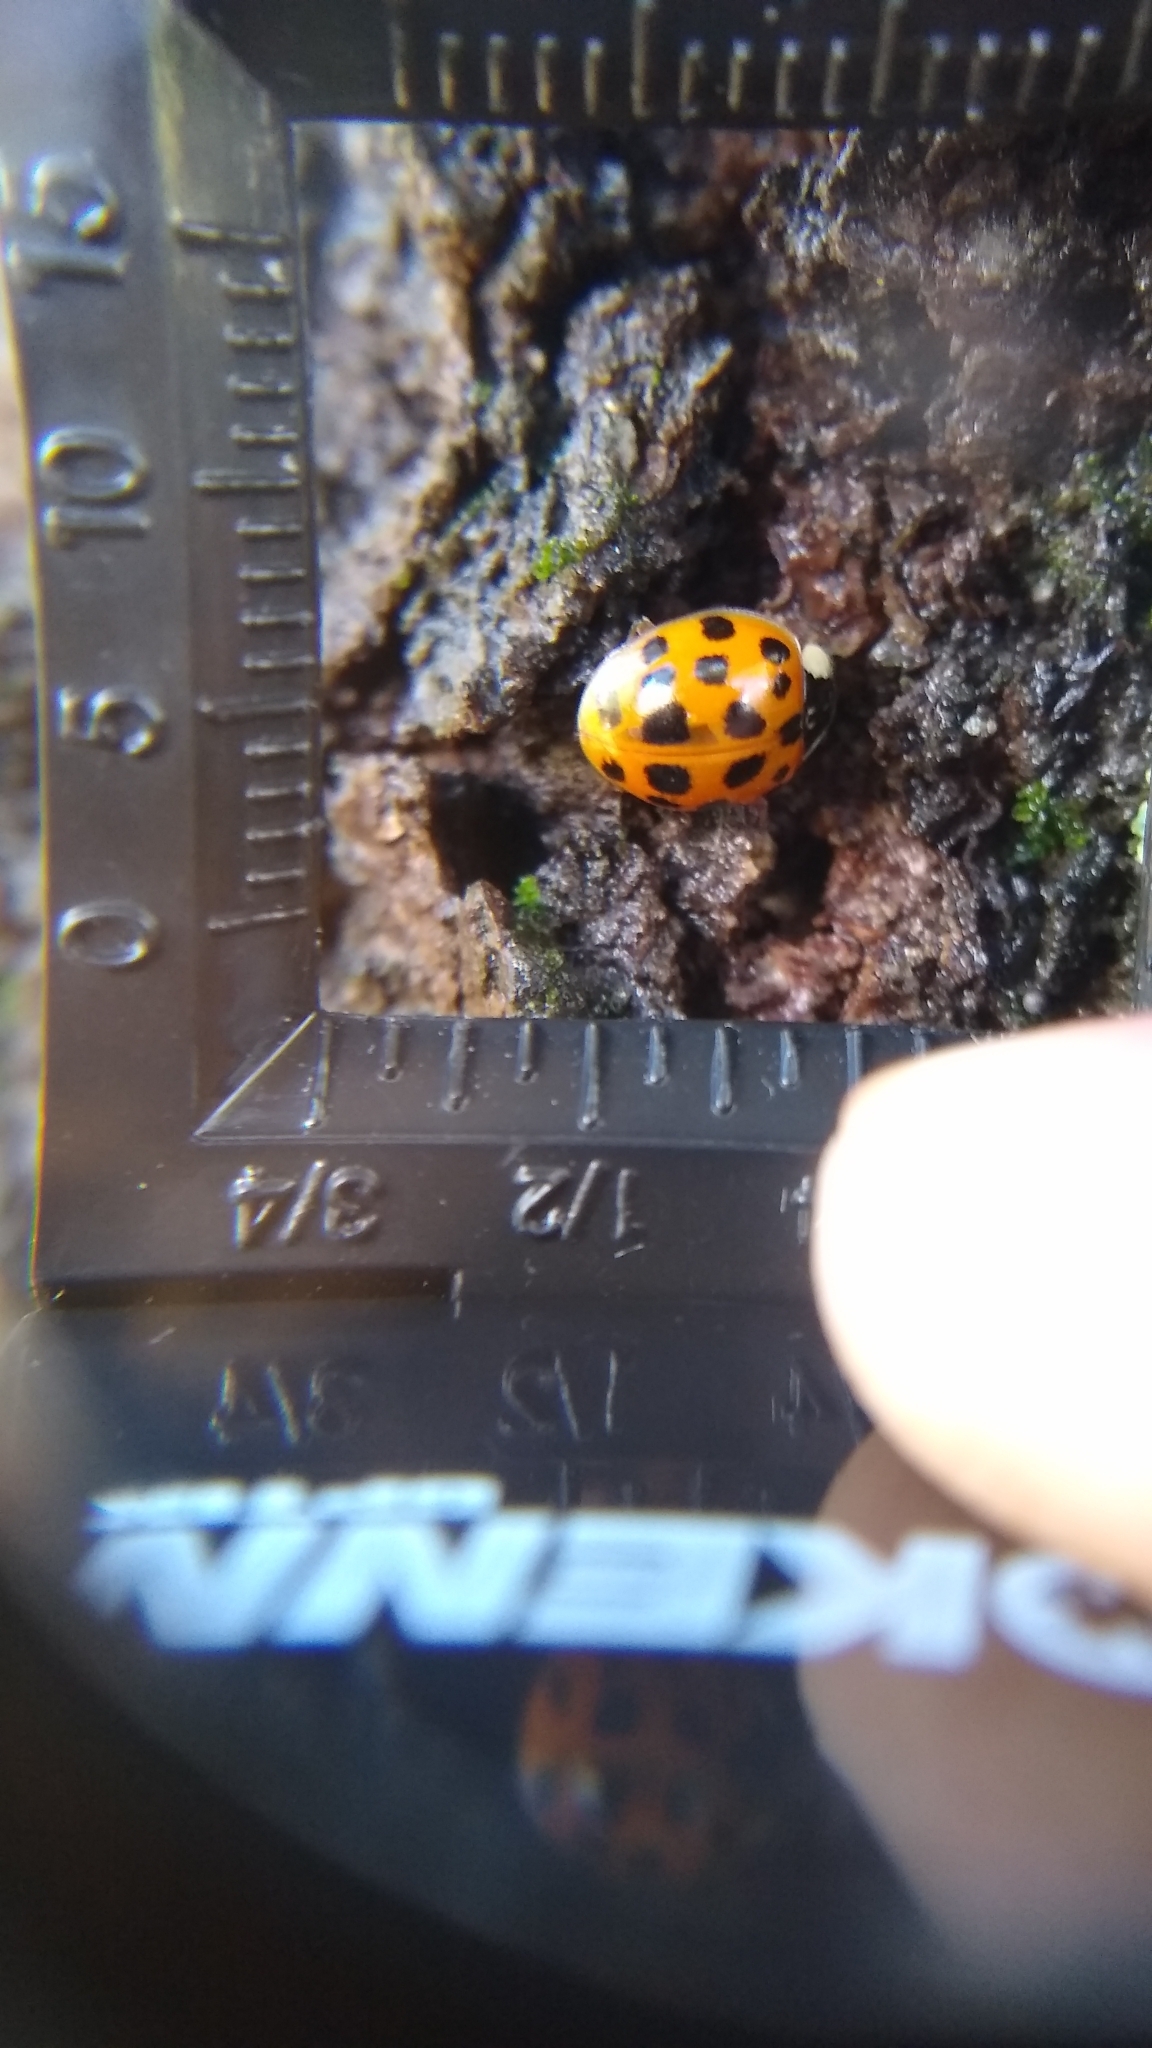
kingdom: Animalia
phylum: Arthropoda
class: Insecta
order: Coleoptera
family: Coccinellidae
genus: Harmonia
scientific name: Harmonia axyridis
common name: Harlequin ladybird
